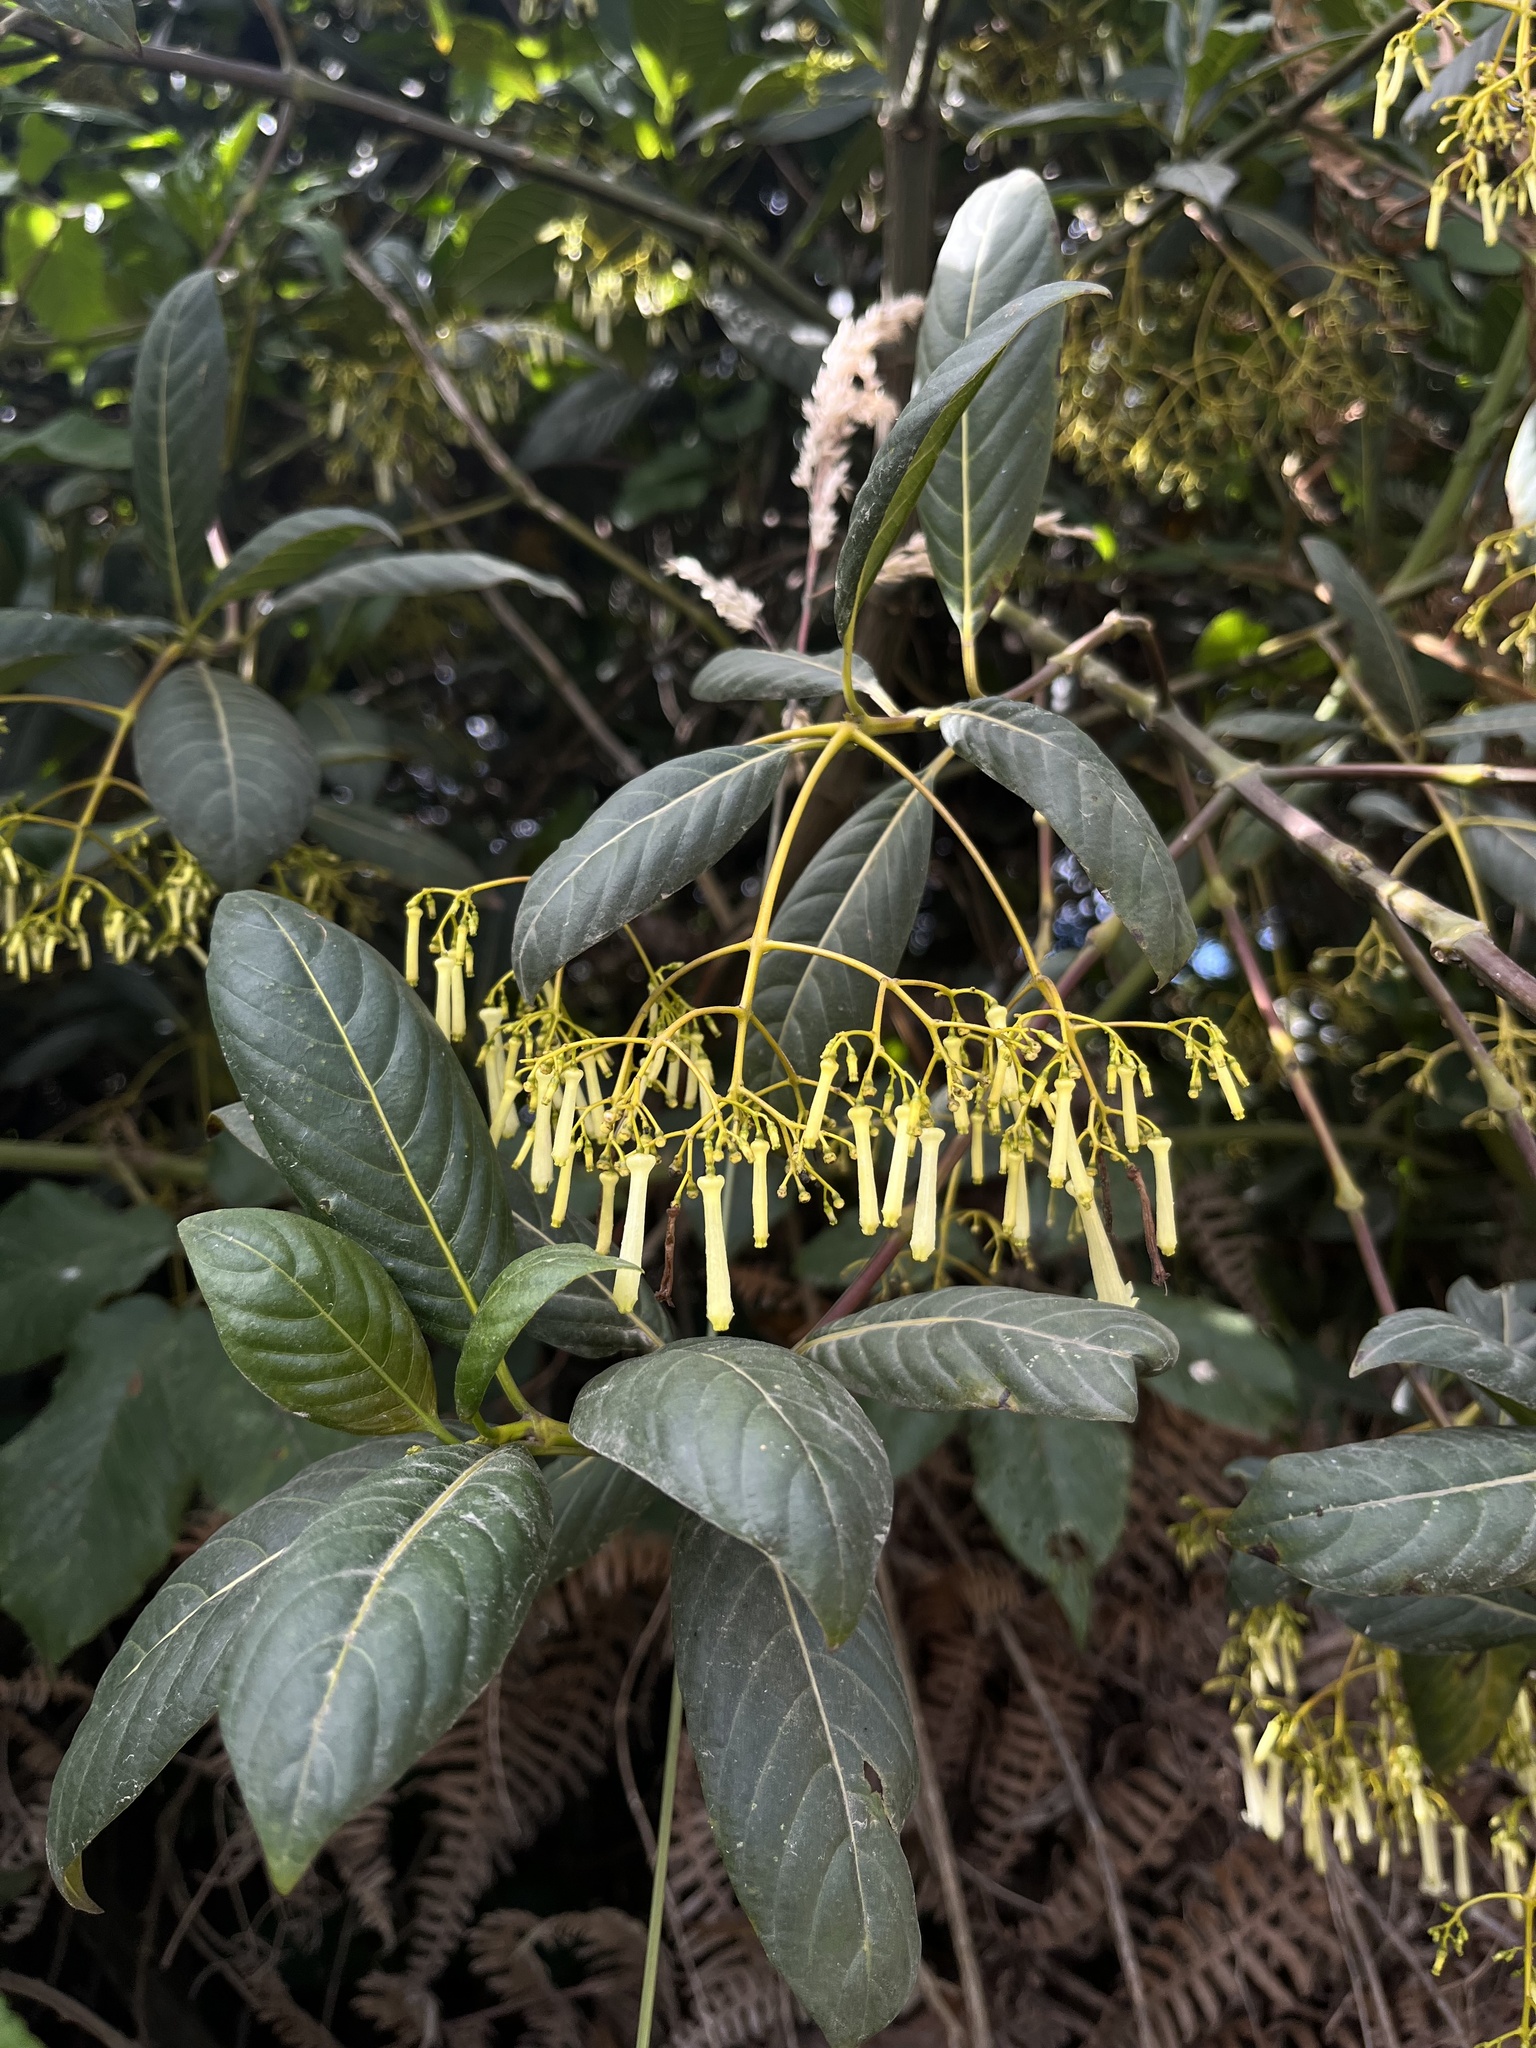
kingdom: Plantae
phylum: Tracheophyta
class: Magnoliopsida
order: Gentianales
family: Rubiaceae
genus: Palicourea
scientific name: Palicourea lineariflora
